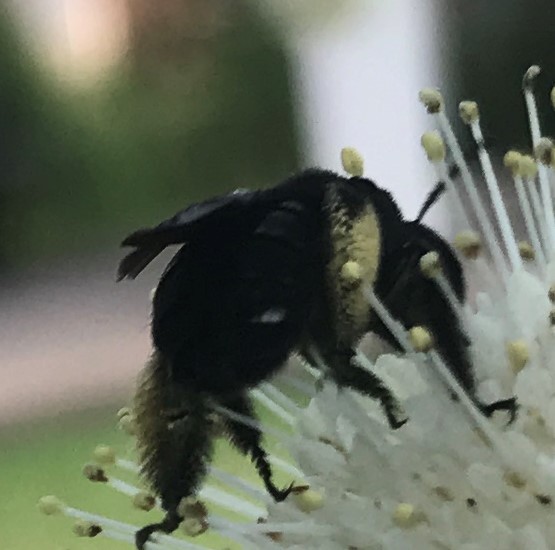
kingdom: Animalia
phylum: Arthropoda
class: Insecta
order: Hymenoptera
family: Apidae
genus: Melissodes
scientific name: Melissodes bimaculatus
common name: Two-spotted long-horned bee
